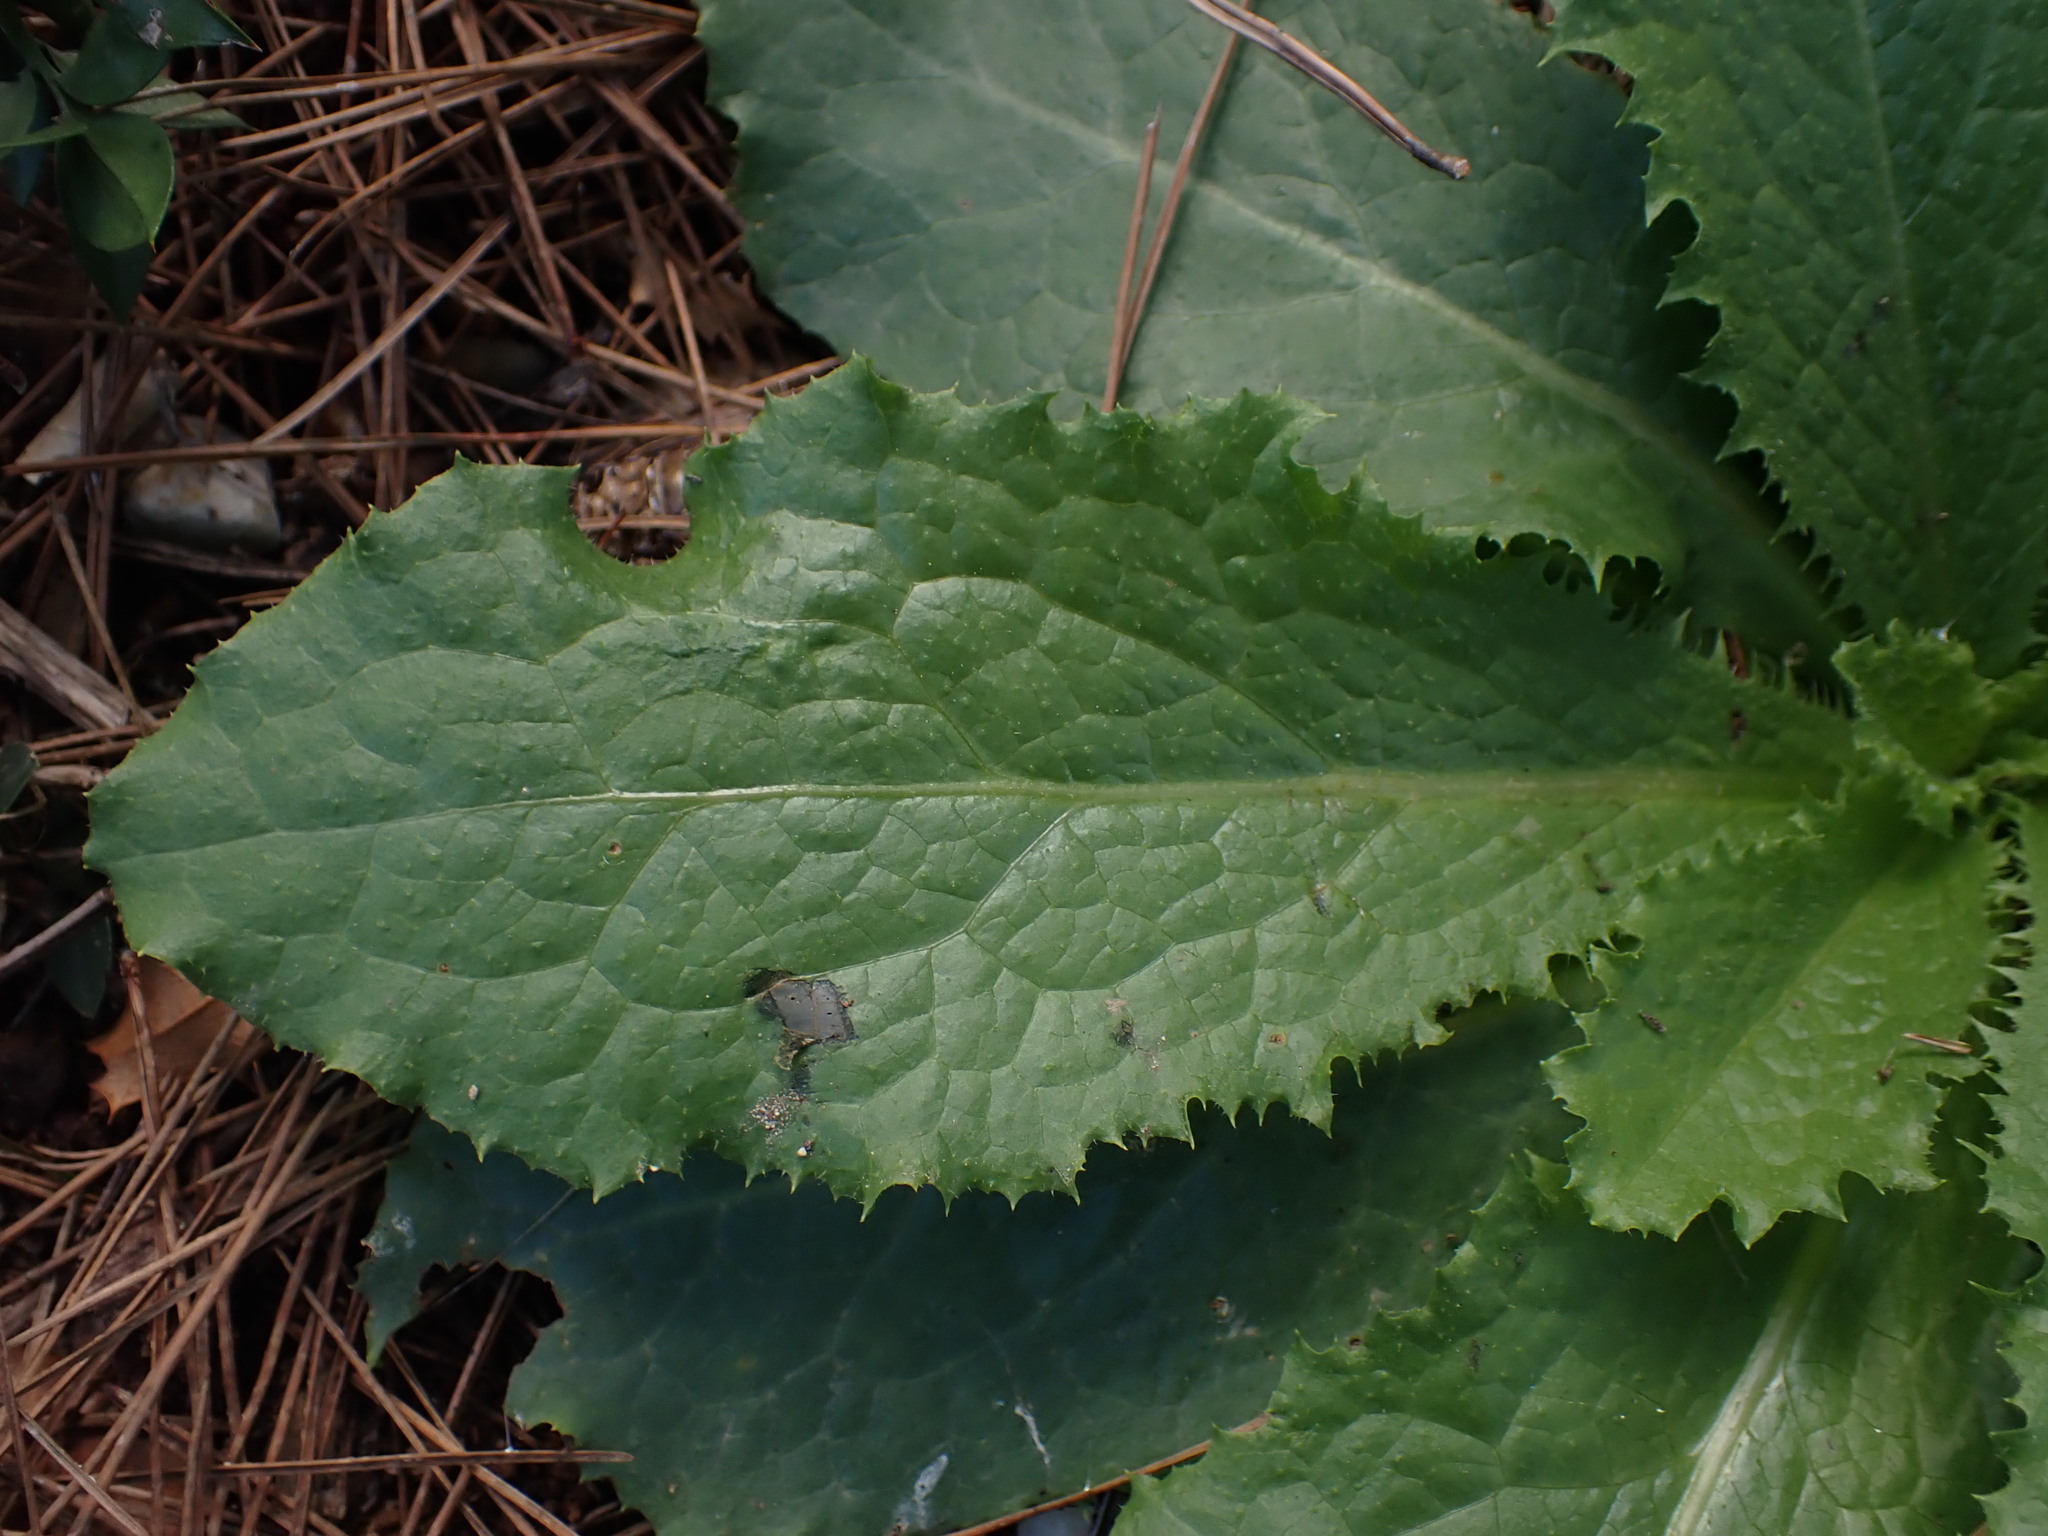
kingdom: Plantae
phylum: Tracheophyta
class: Magnoliopsida
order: Asterales
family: Asteraceae
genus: Lactuca
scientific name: Lactuca virosa
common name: Great lettuce
